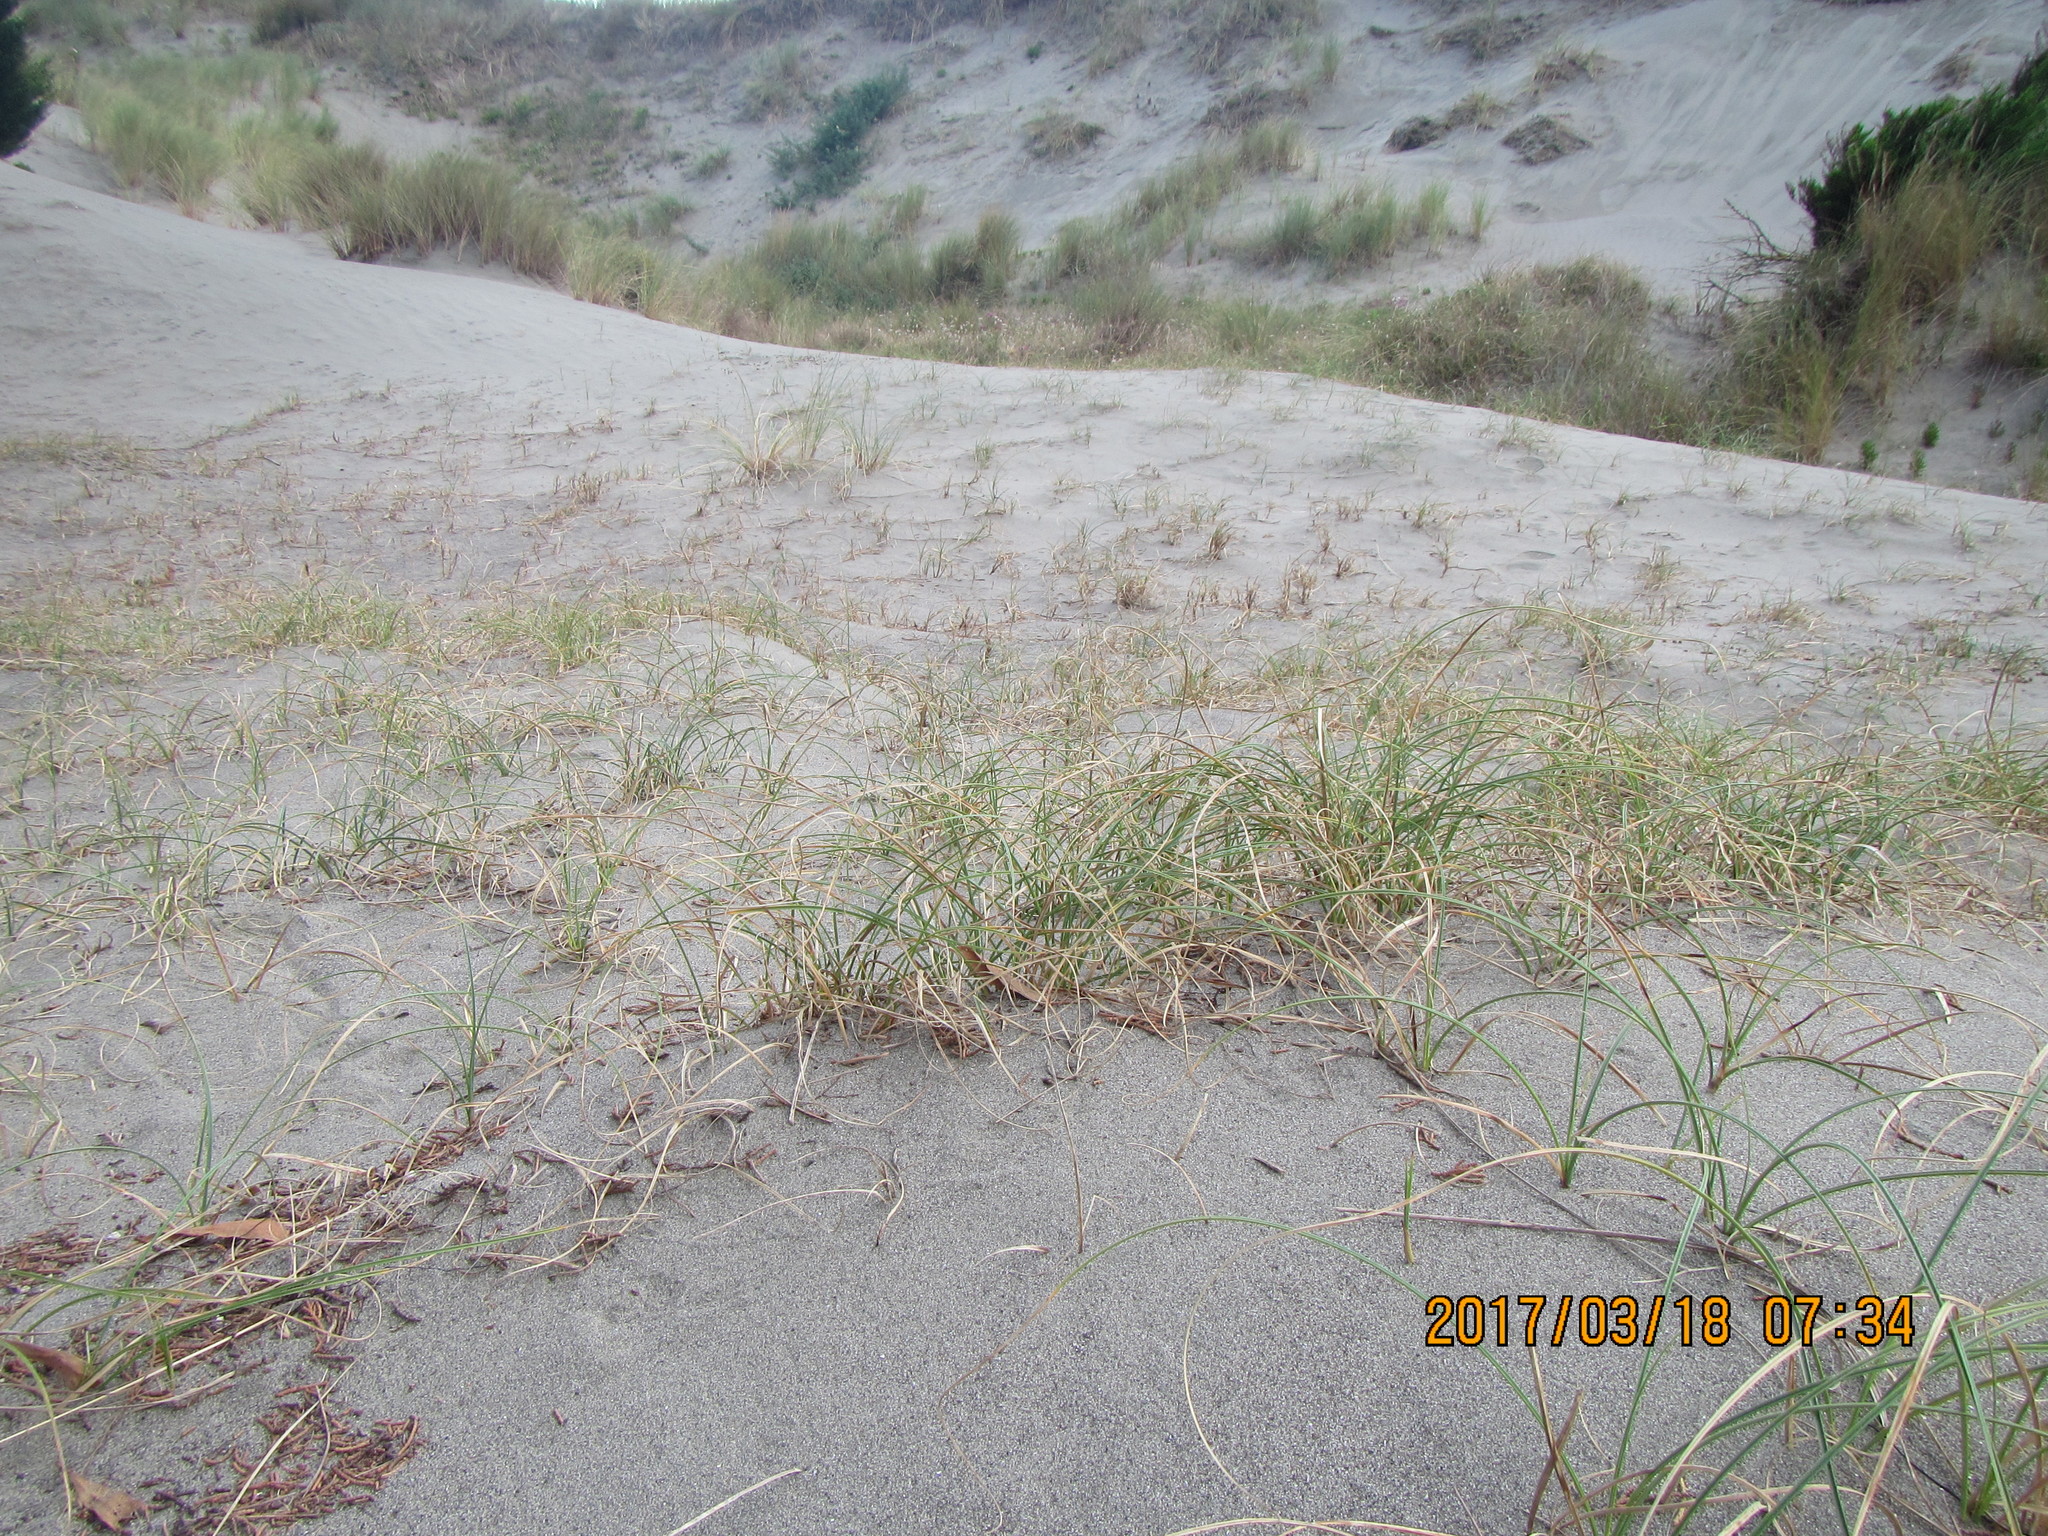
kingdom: Plantae
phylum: Tracheophyta
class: Liliopsida
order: Poales
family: Cyperaceae
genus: Carex
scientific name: Carex pumila
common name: Dwarf sedge
